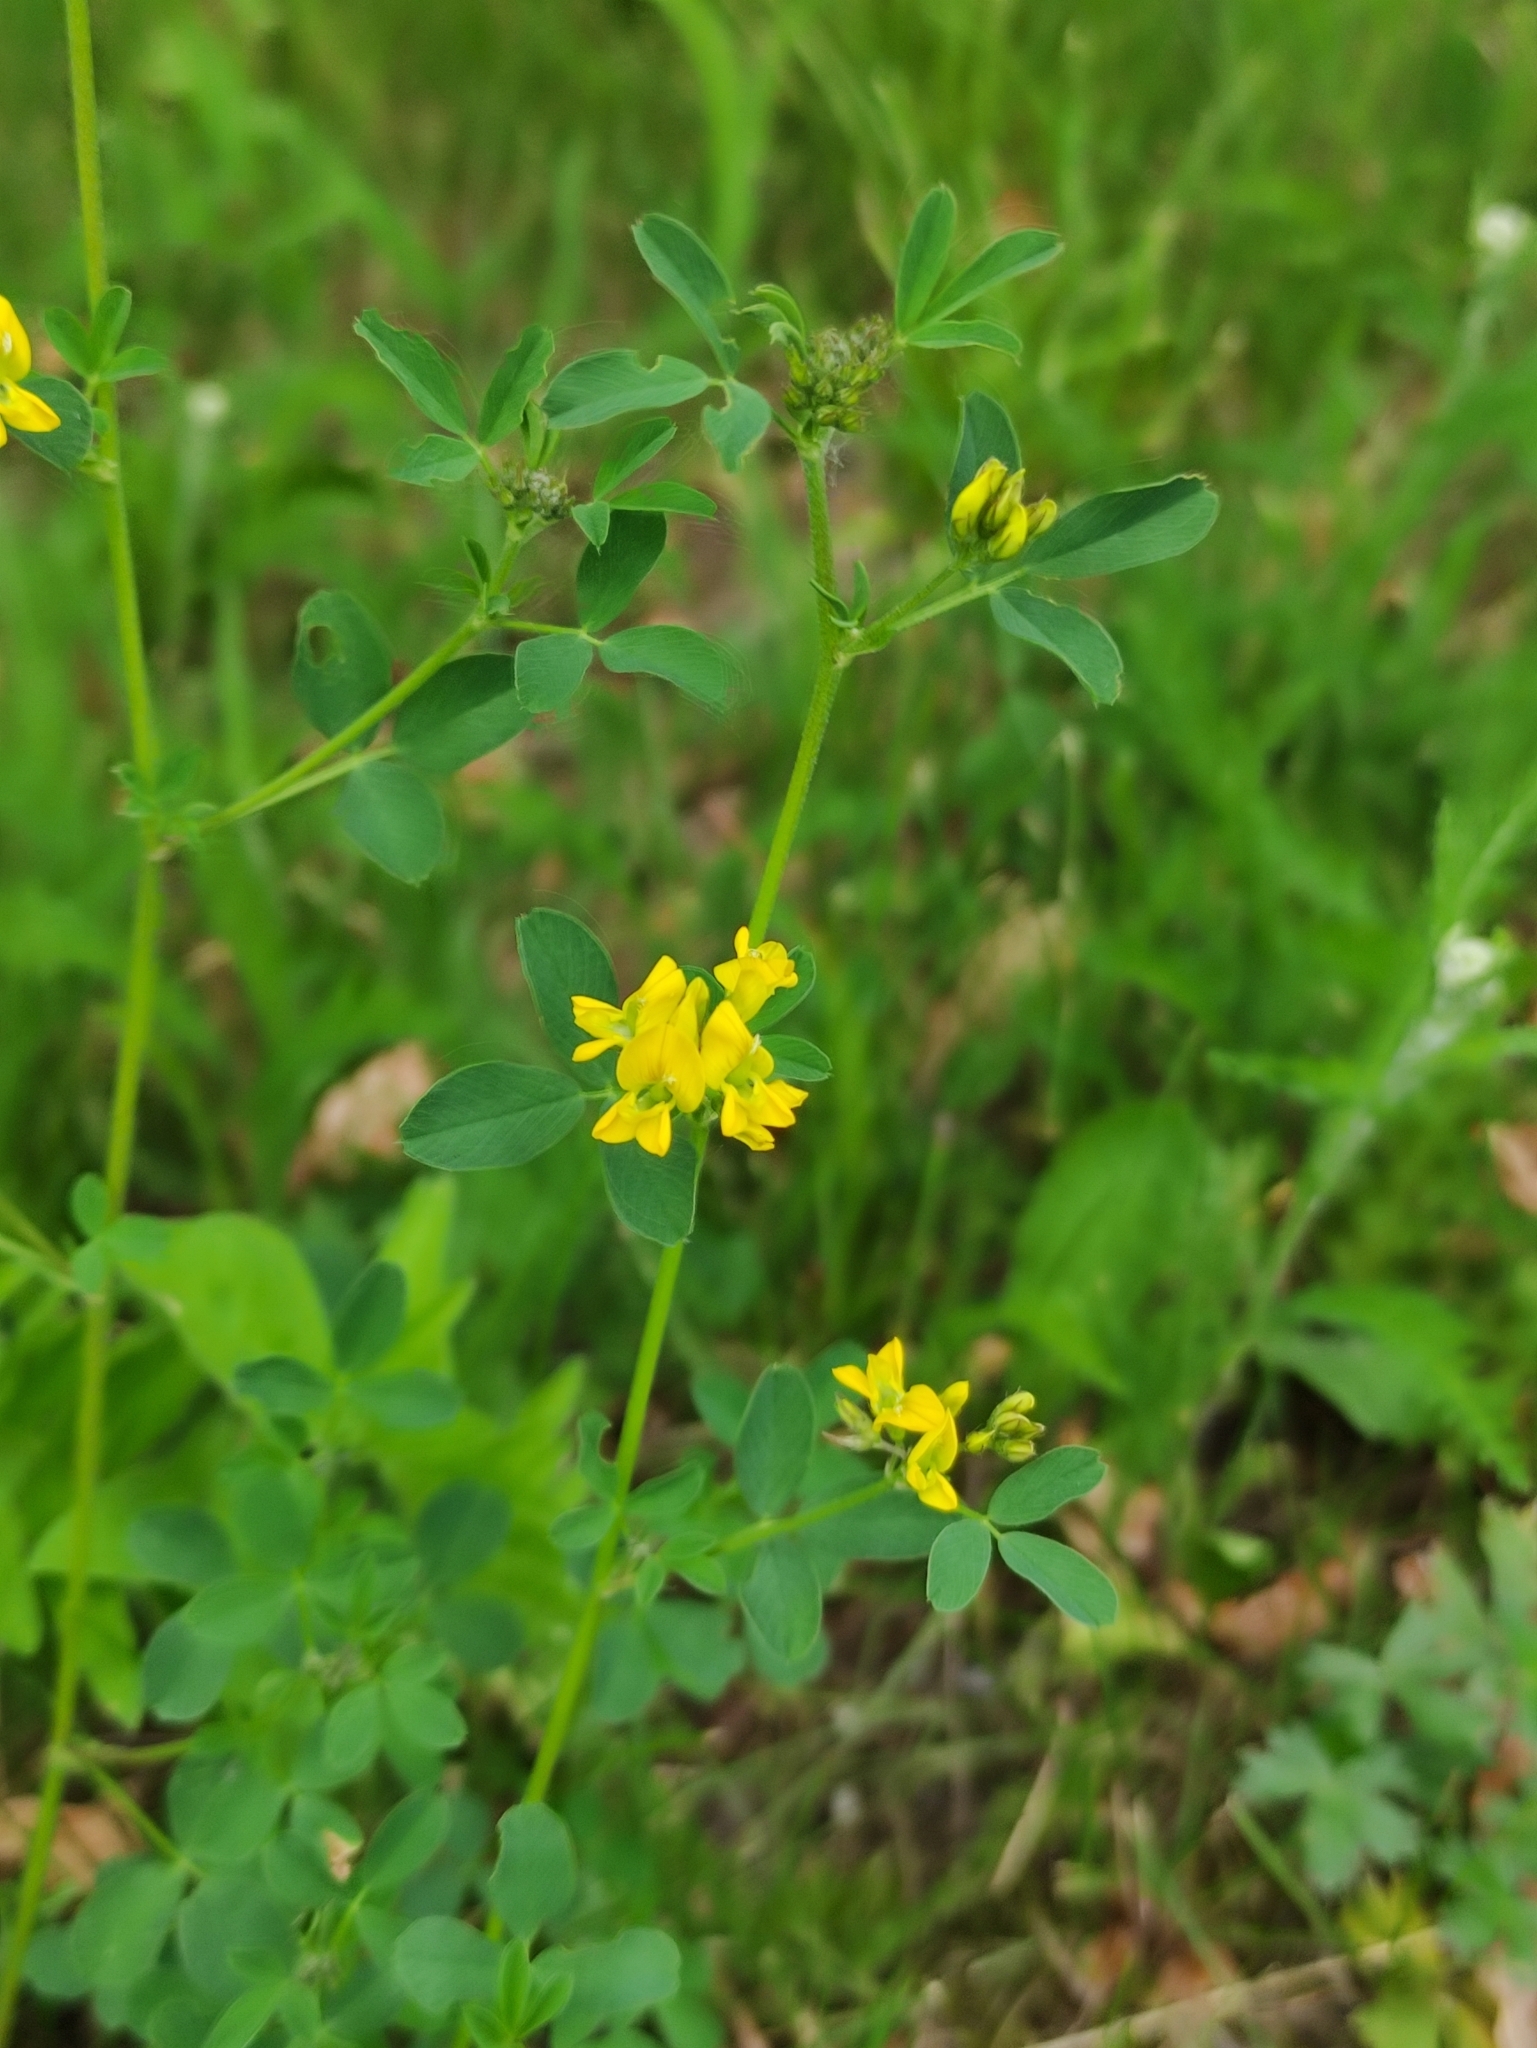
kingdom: Plantae
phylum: Tracheophyta
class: Magnoliopsida
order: Fabales
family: Fabaceae
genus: Medicago
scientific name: Medicago falcata
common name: Sickle medick
